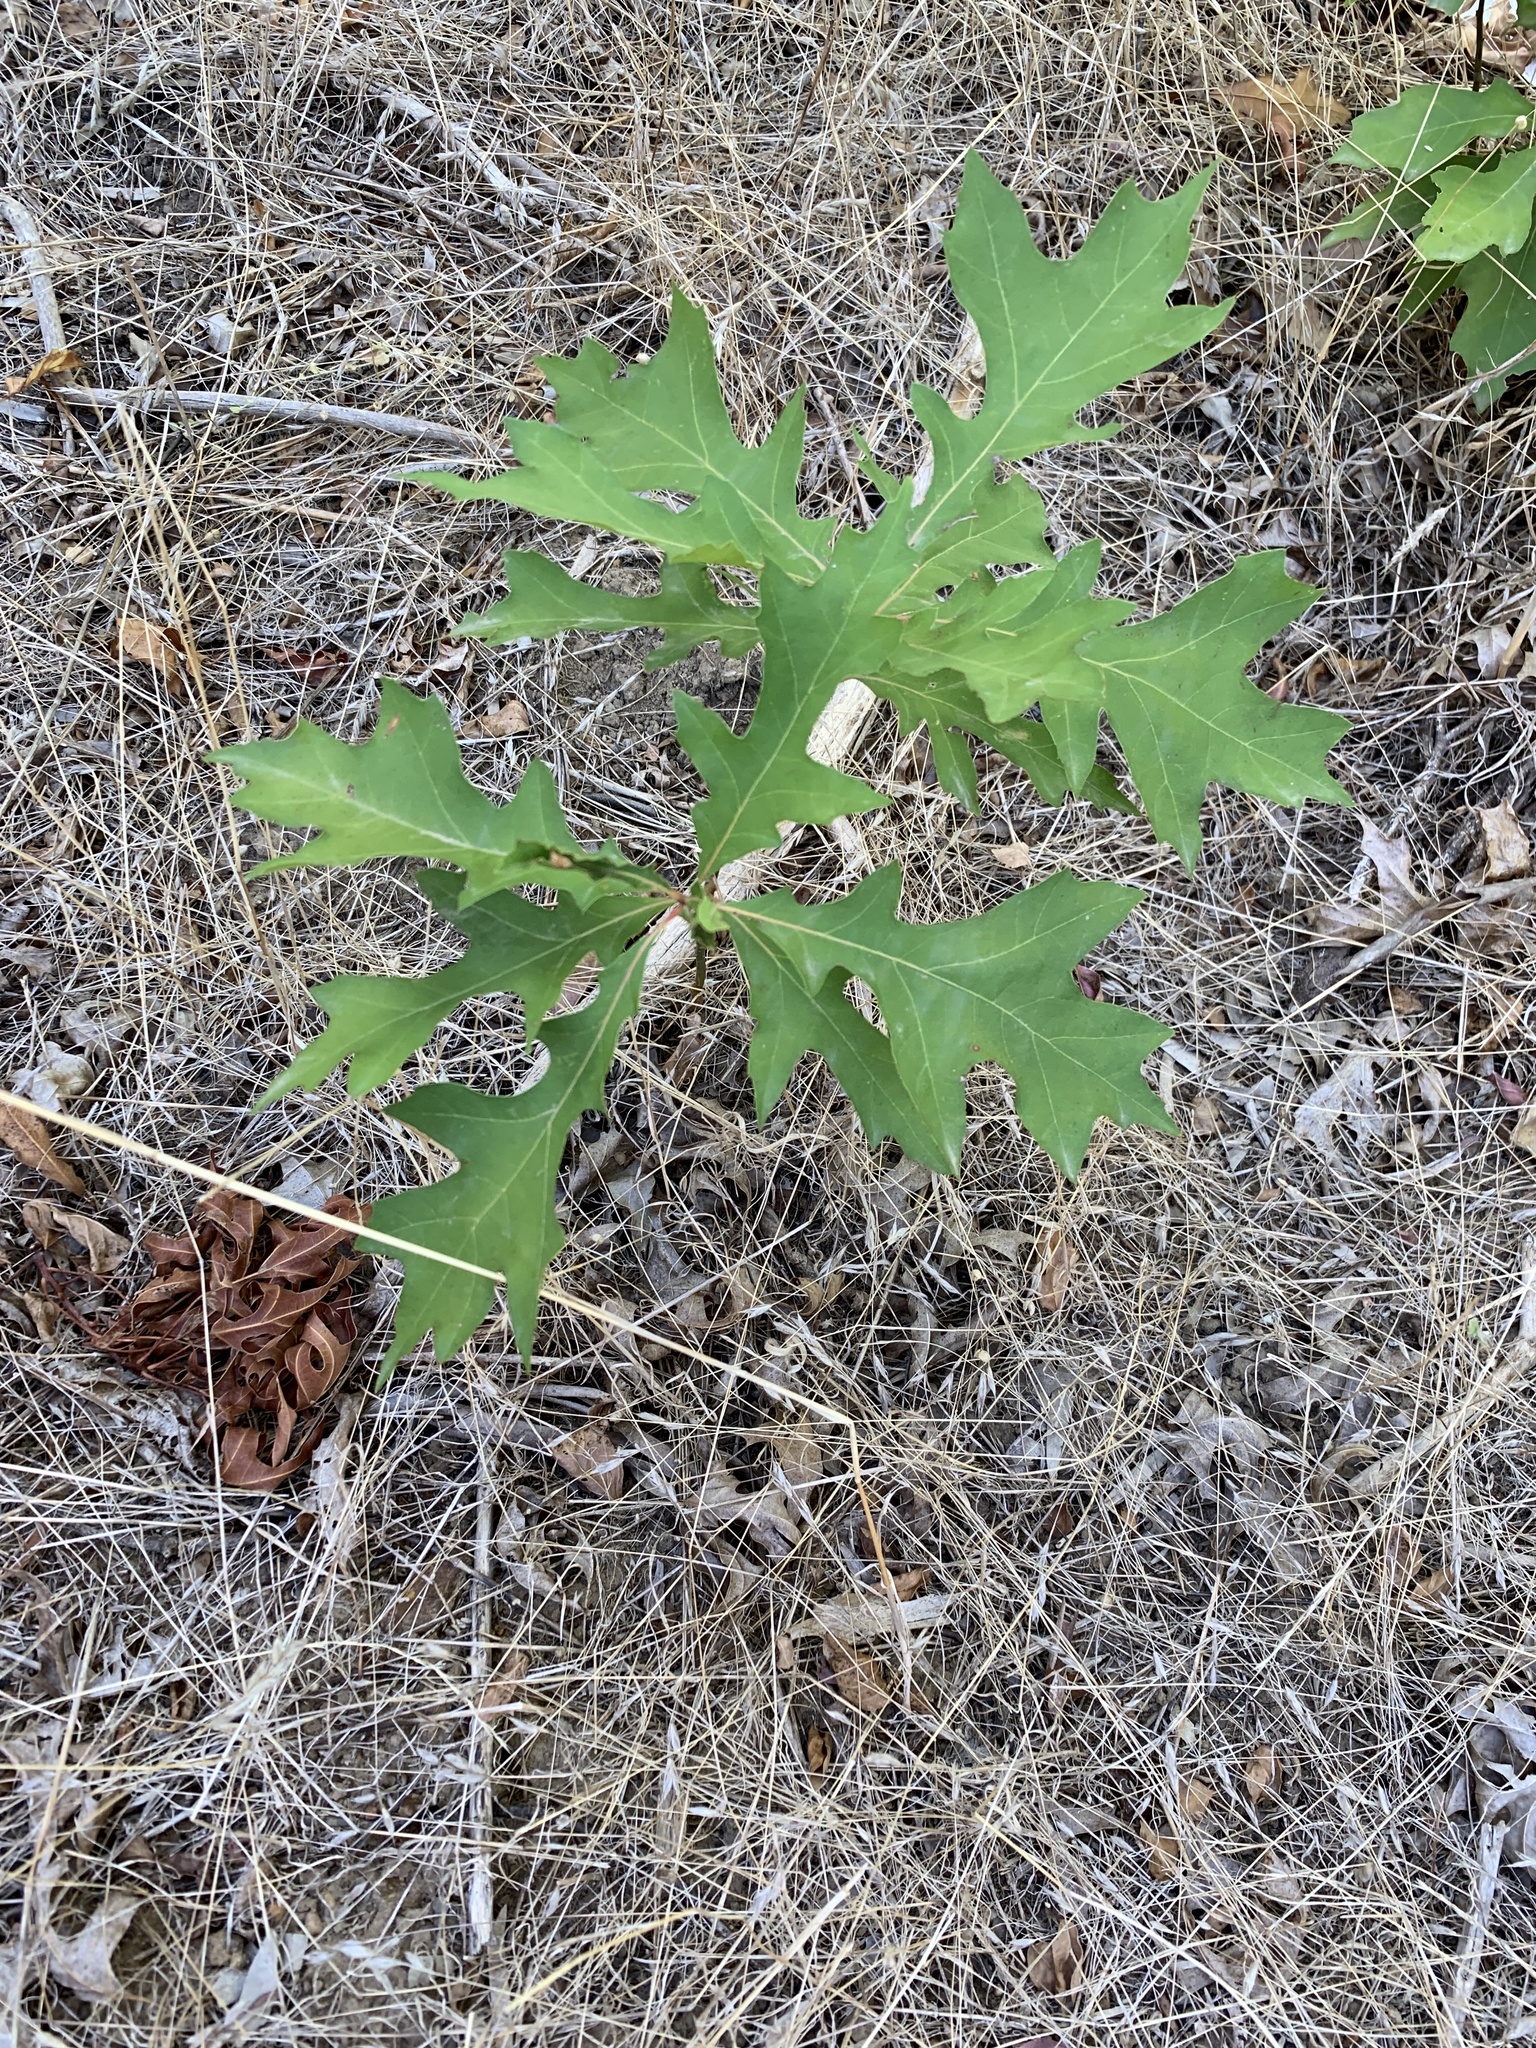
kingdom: Plantae
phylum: Tracheophyta
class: Magnoliopsida
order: Fagales
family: Fagaceae
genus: Quercus
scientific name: Quercus palustris
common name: Pin oak
